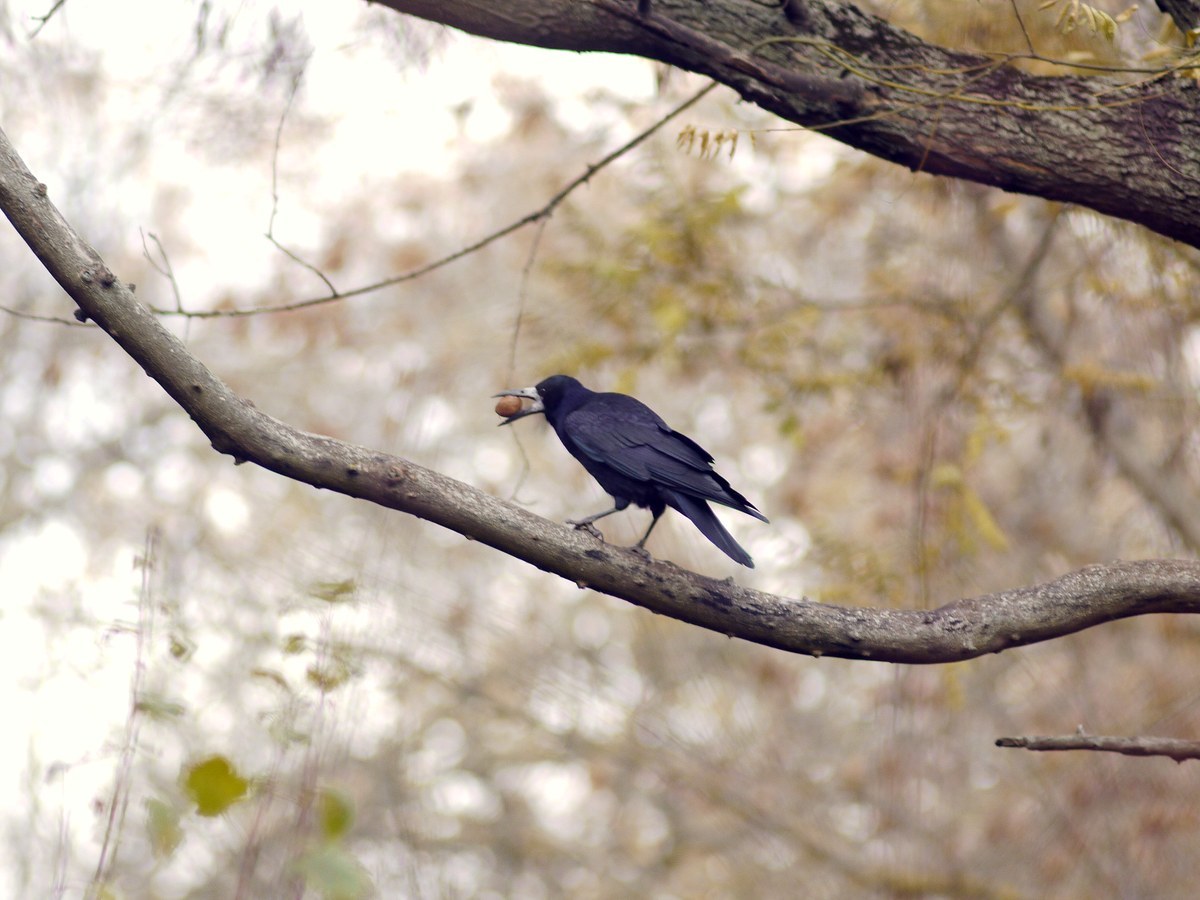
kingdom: Animalia
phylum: Chordata
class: Aves
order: Passeriformes
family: Corvidae
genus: Corvus
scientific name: Corvus frugilegus
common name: Rook
